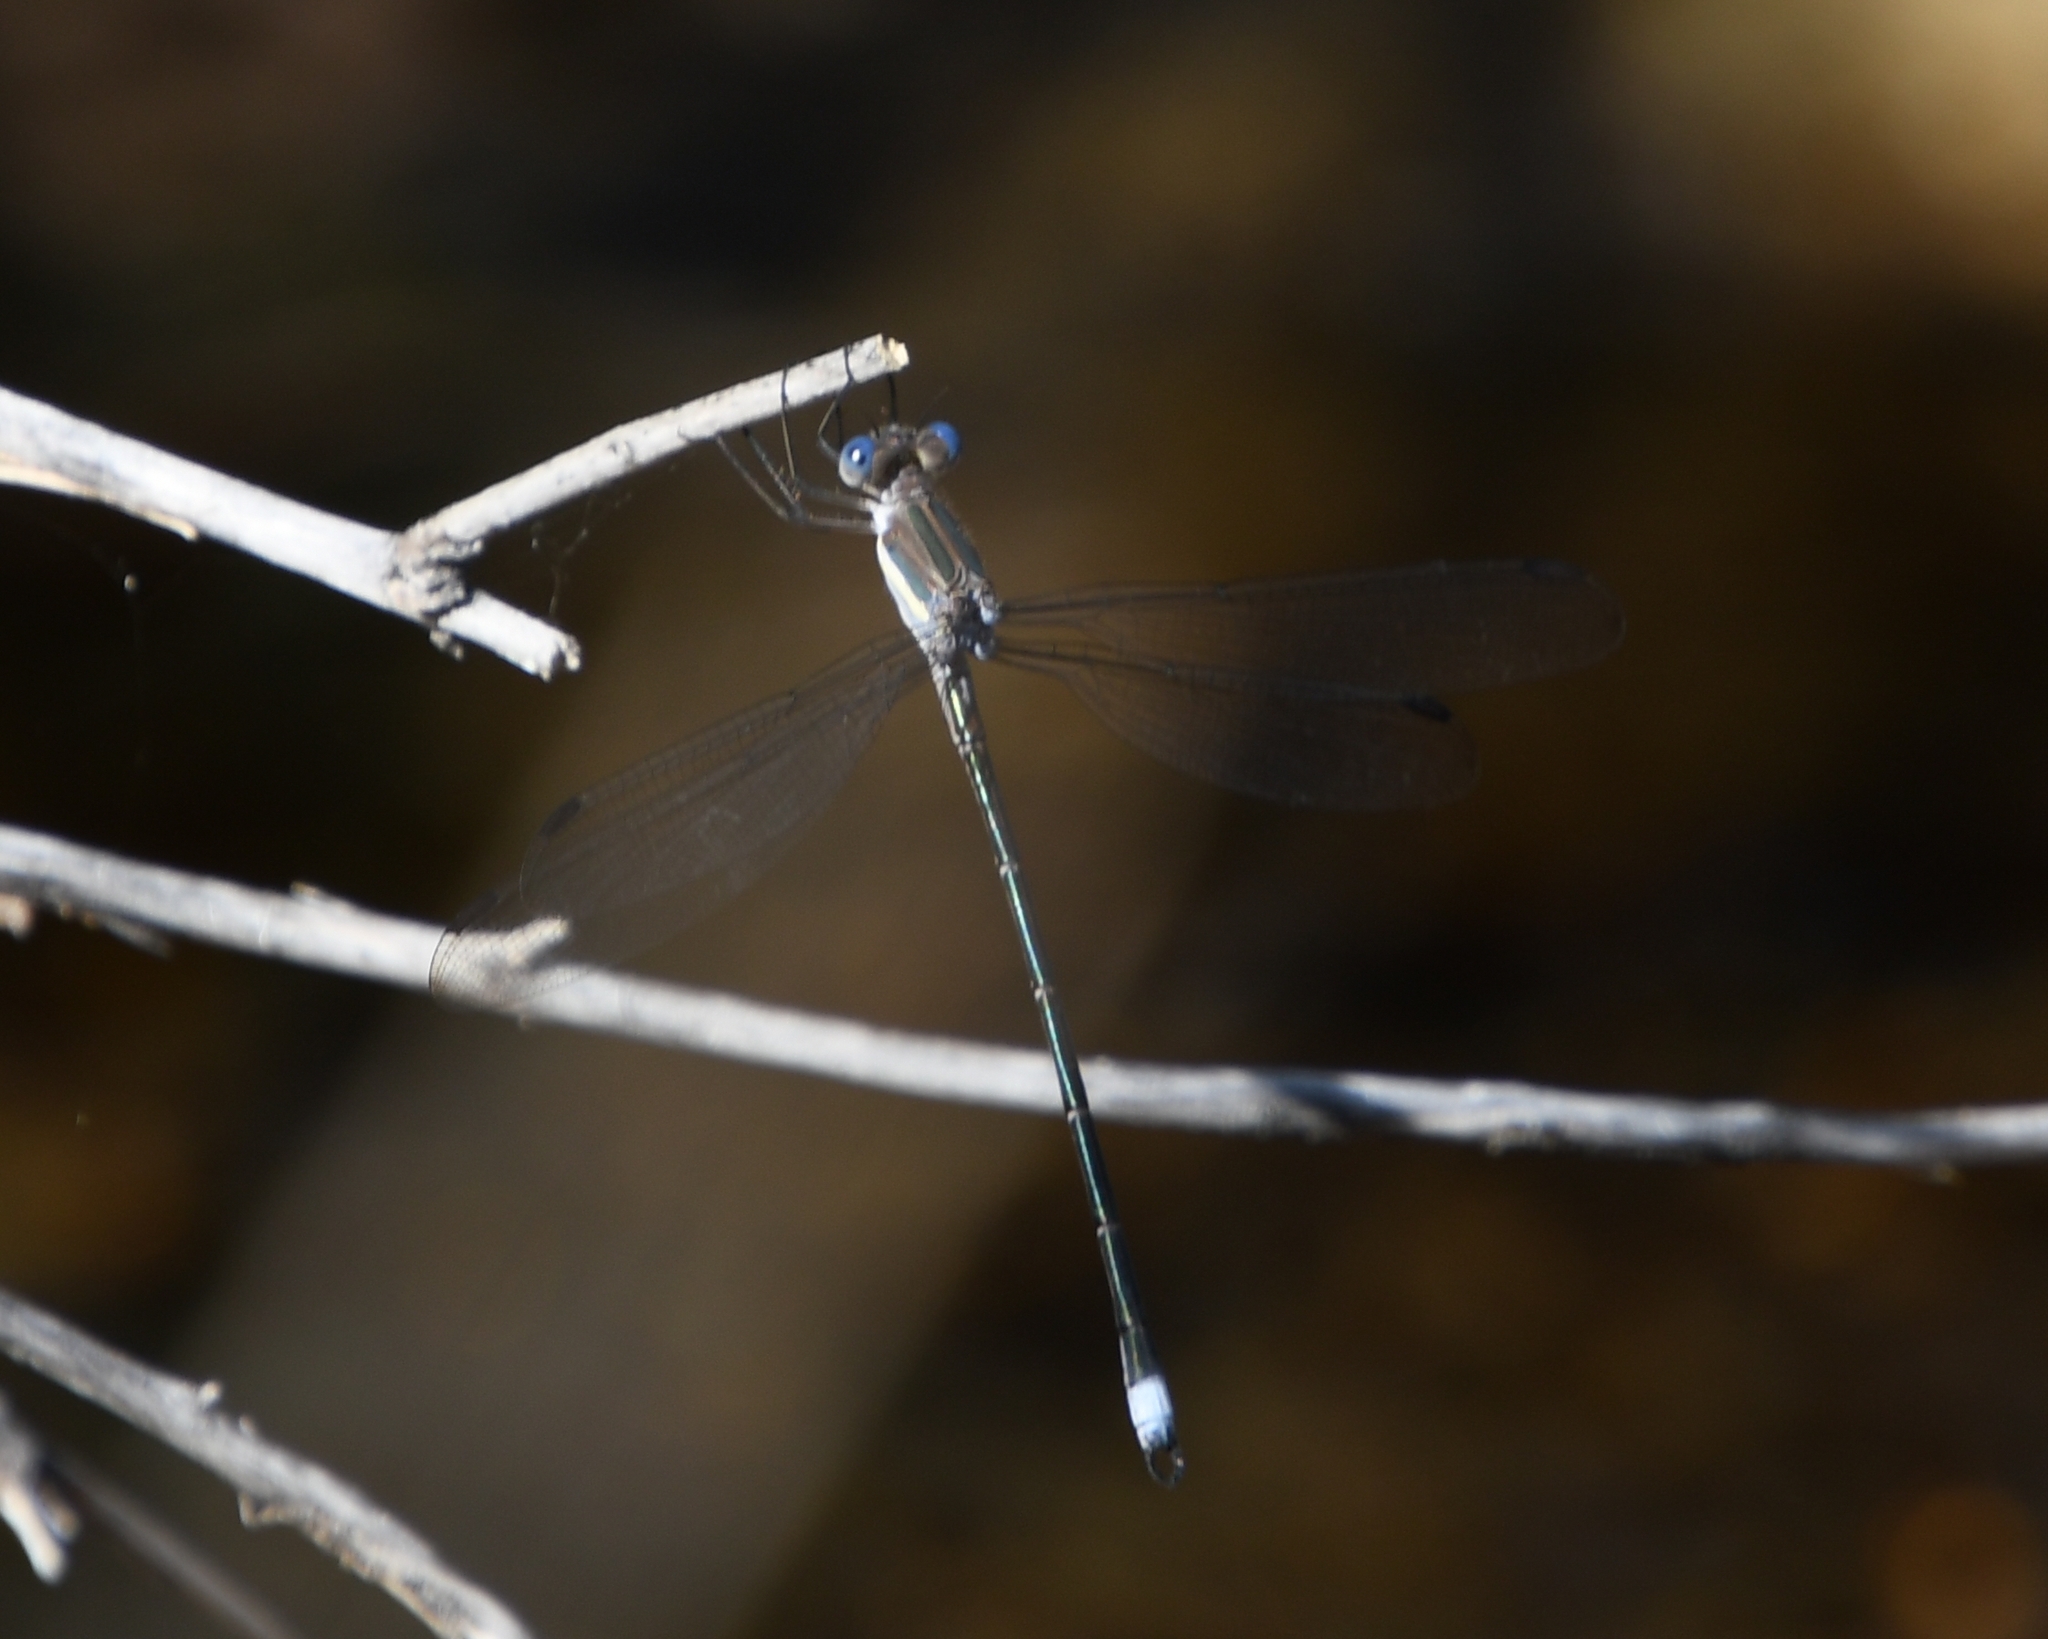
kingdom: Animalia
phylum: Arthropoda
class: Insecta
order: Odonata
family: Lestidae
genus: Archilestes
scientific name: Archilestes grandis
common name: Great spreadwing
